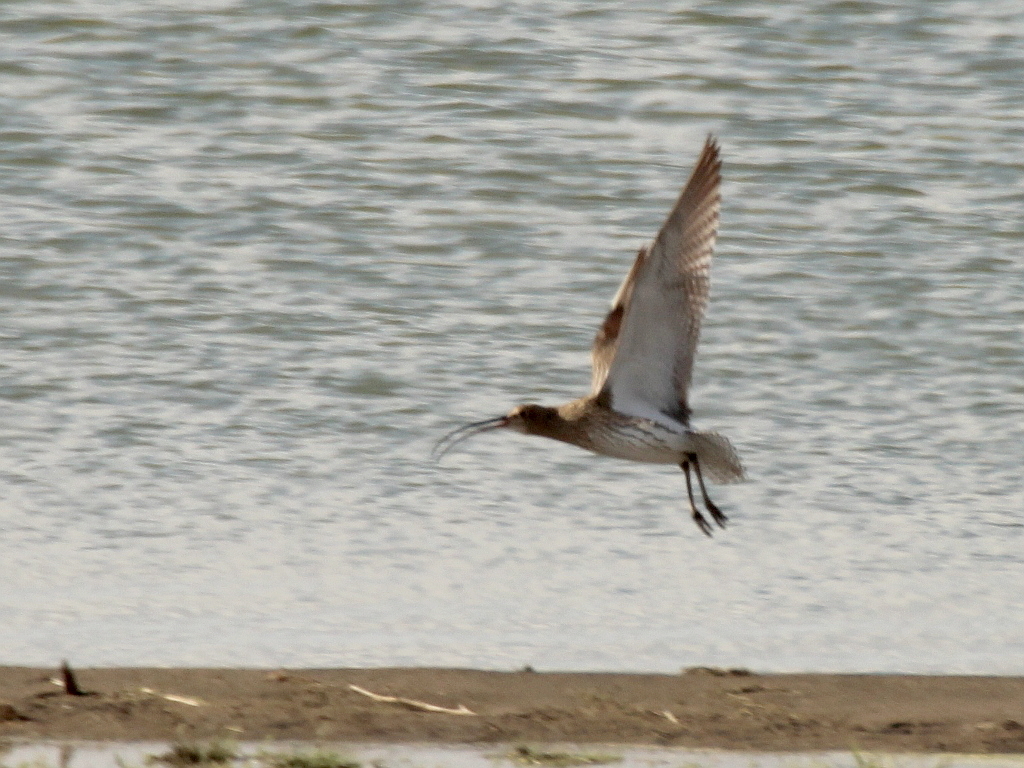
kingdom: Animalia
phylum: Chordata
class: Aves
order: Charadriiformes
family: Scolopacidae
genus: Numenius
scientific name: Numenius arquata
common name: Eurasian curlew
